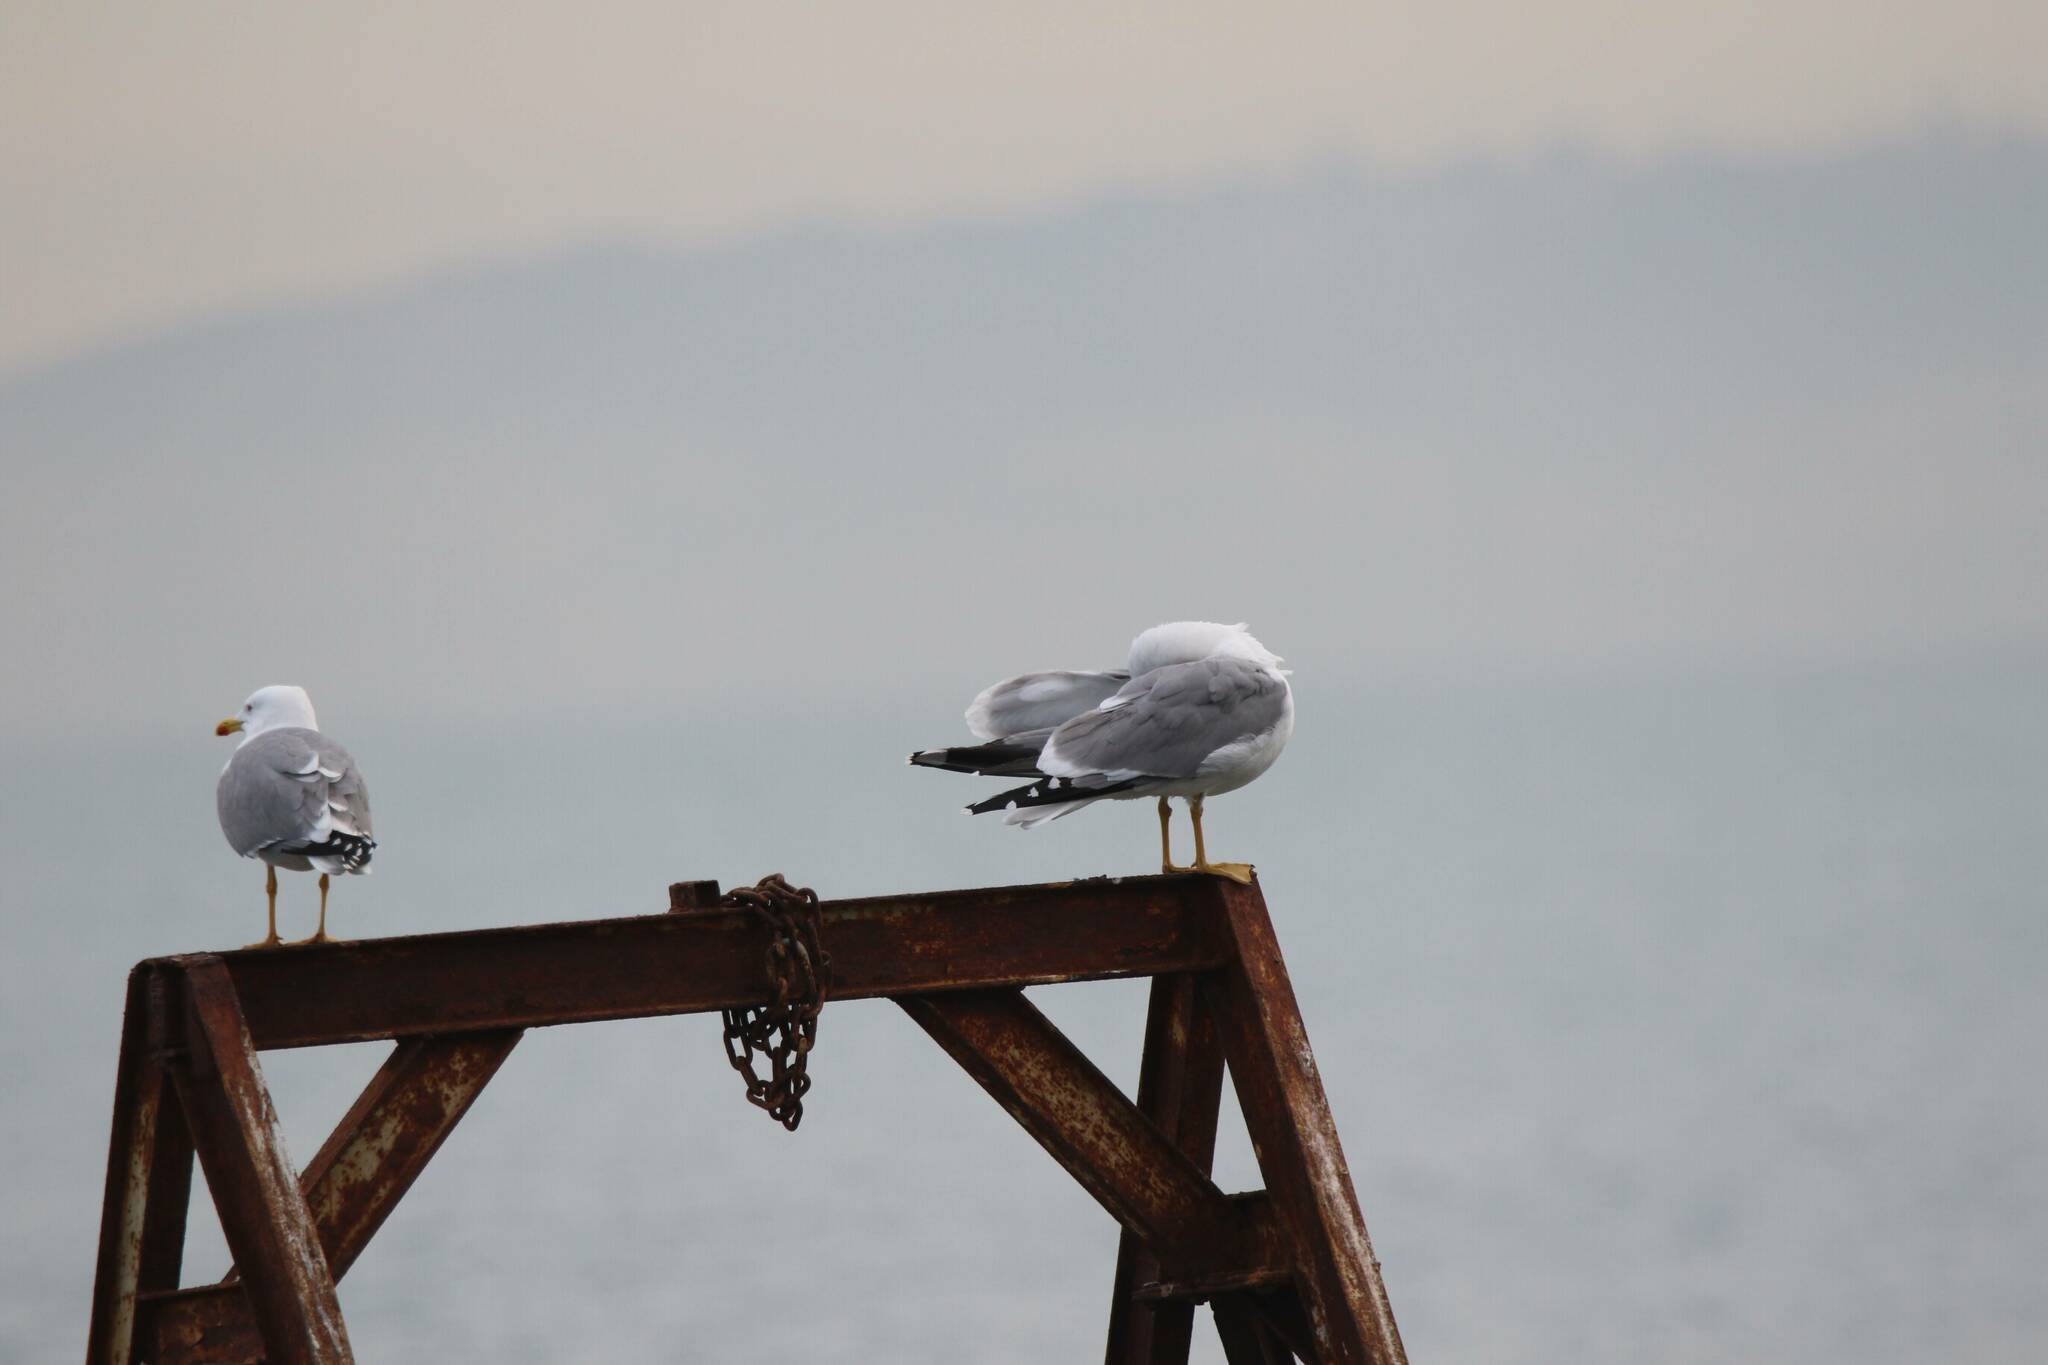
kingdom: Animalia
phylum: Chordata
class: Aves
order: Charadriiformes
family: Laridae
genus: Larus
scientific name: Larus michahellis
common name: Yellow-legged gull
